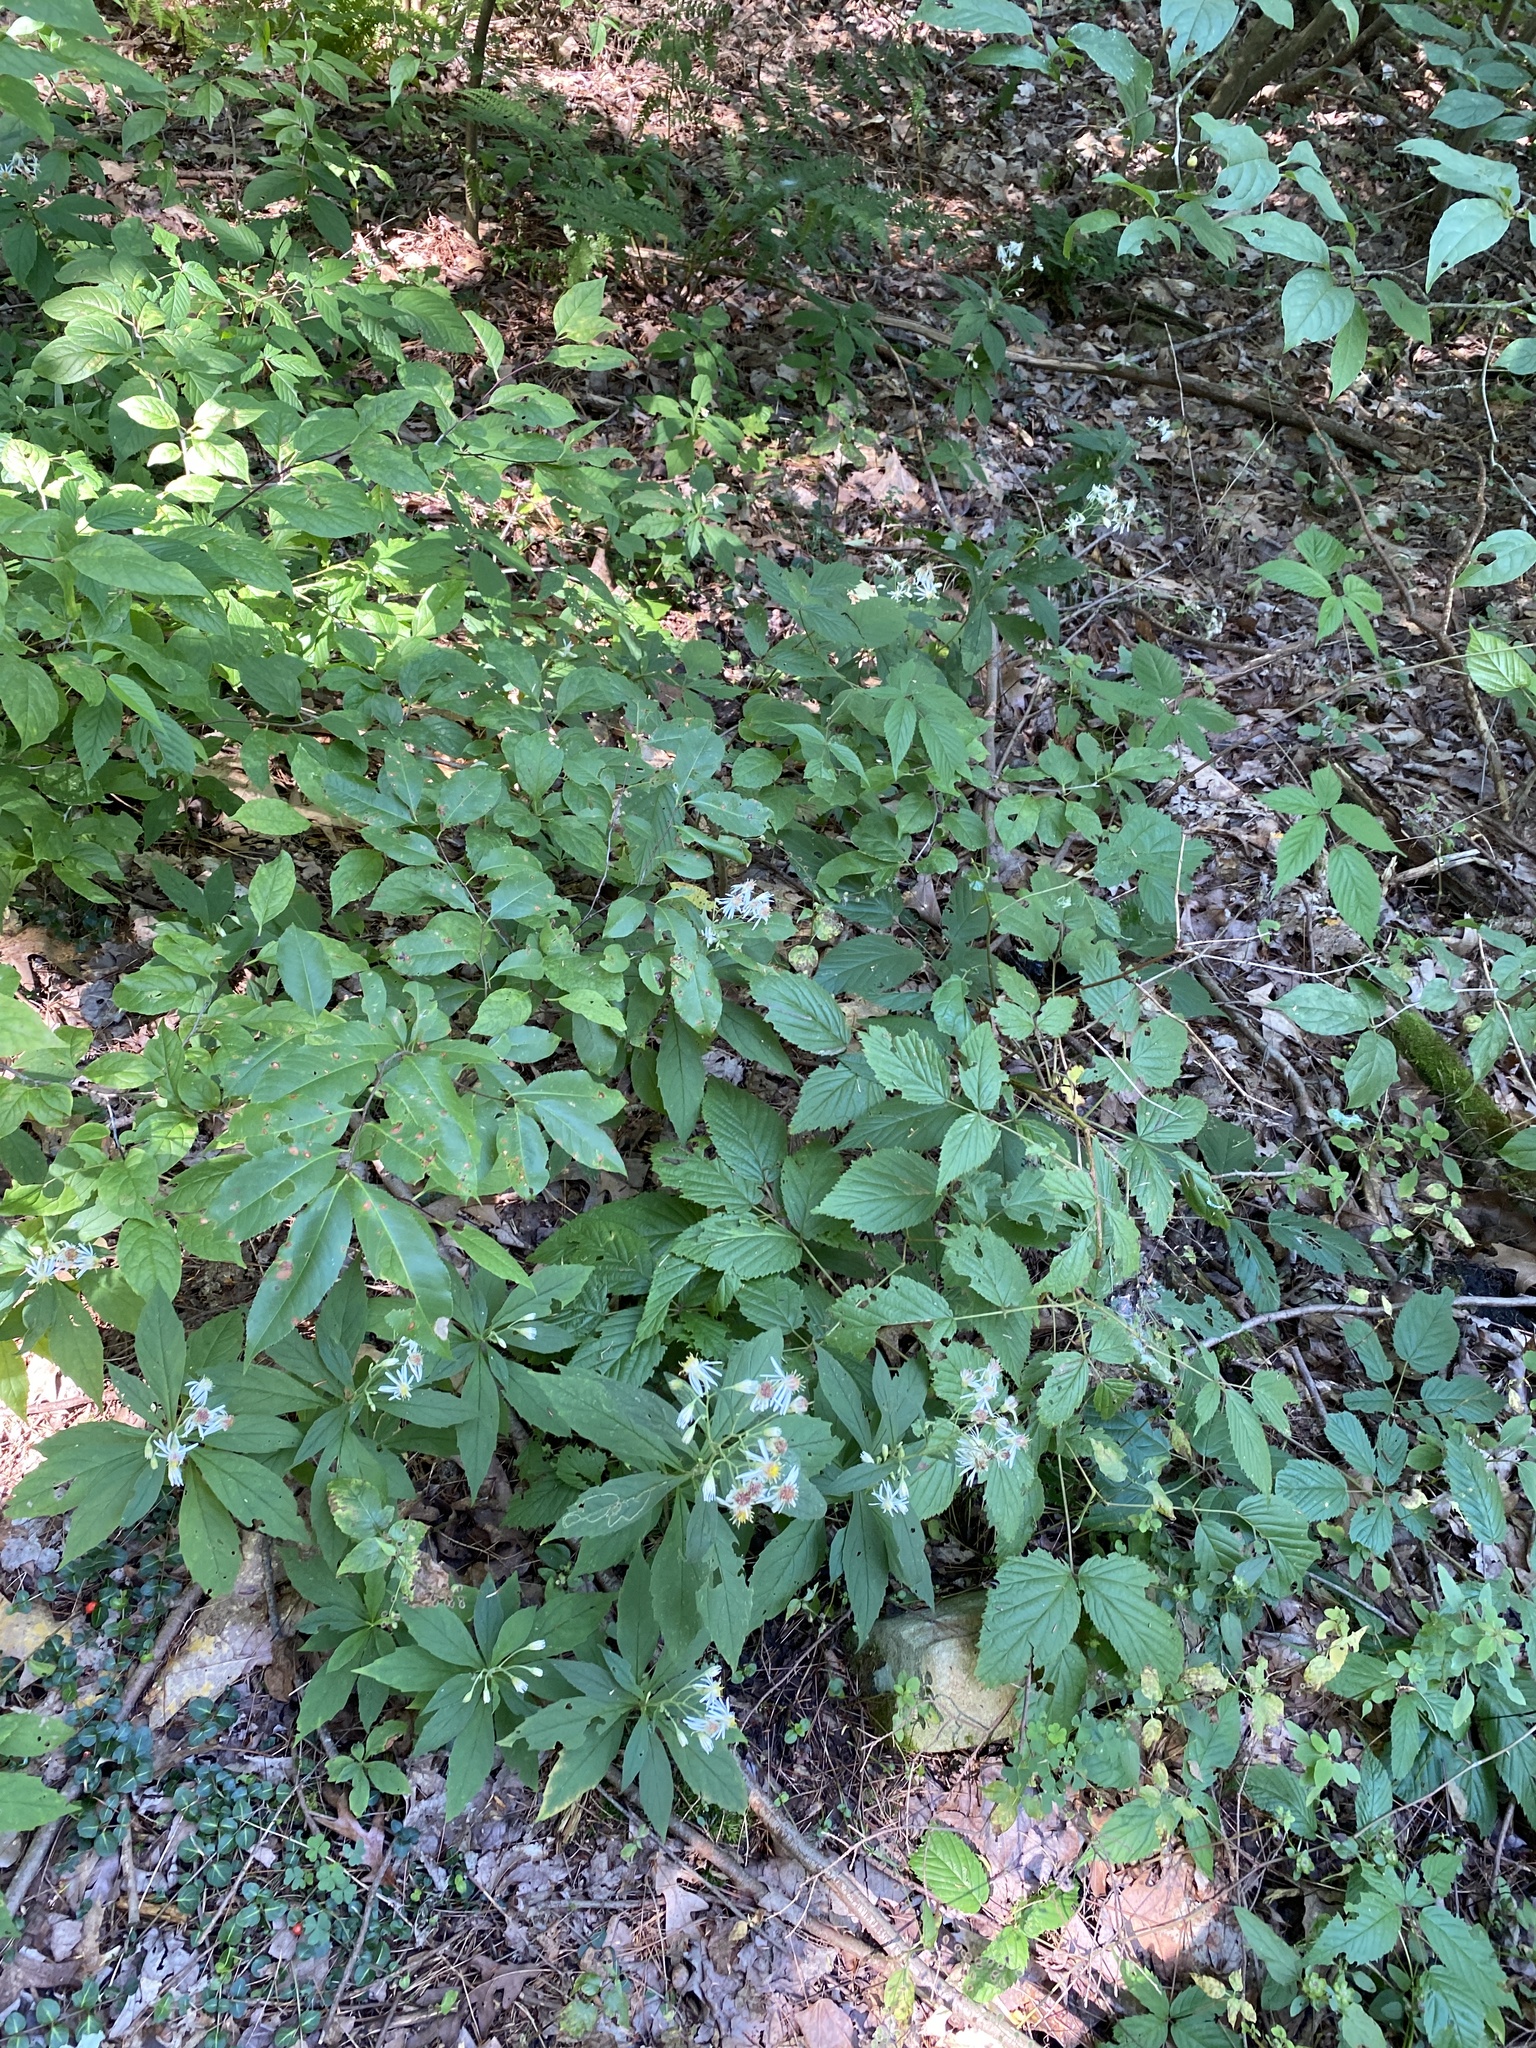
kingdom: Plantae
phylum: Tracheophyta
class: Magnoliopsida
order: Asterales
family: Asteraceae
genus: Oclemena
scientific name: Oclemena acuminata
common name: Mountain aster
